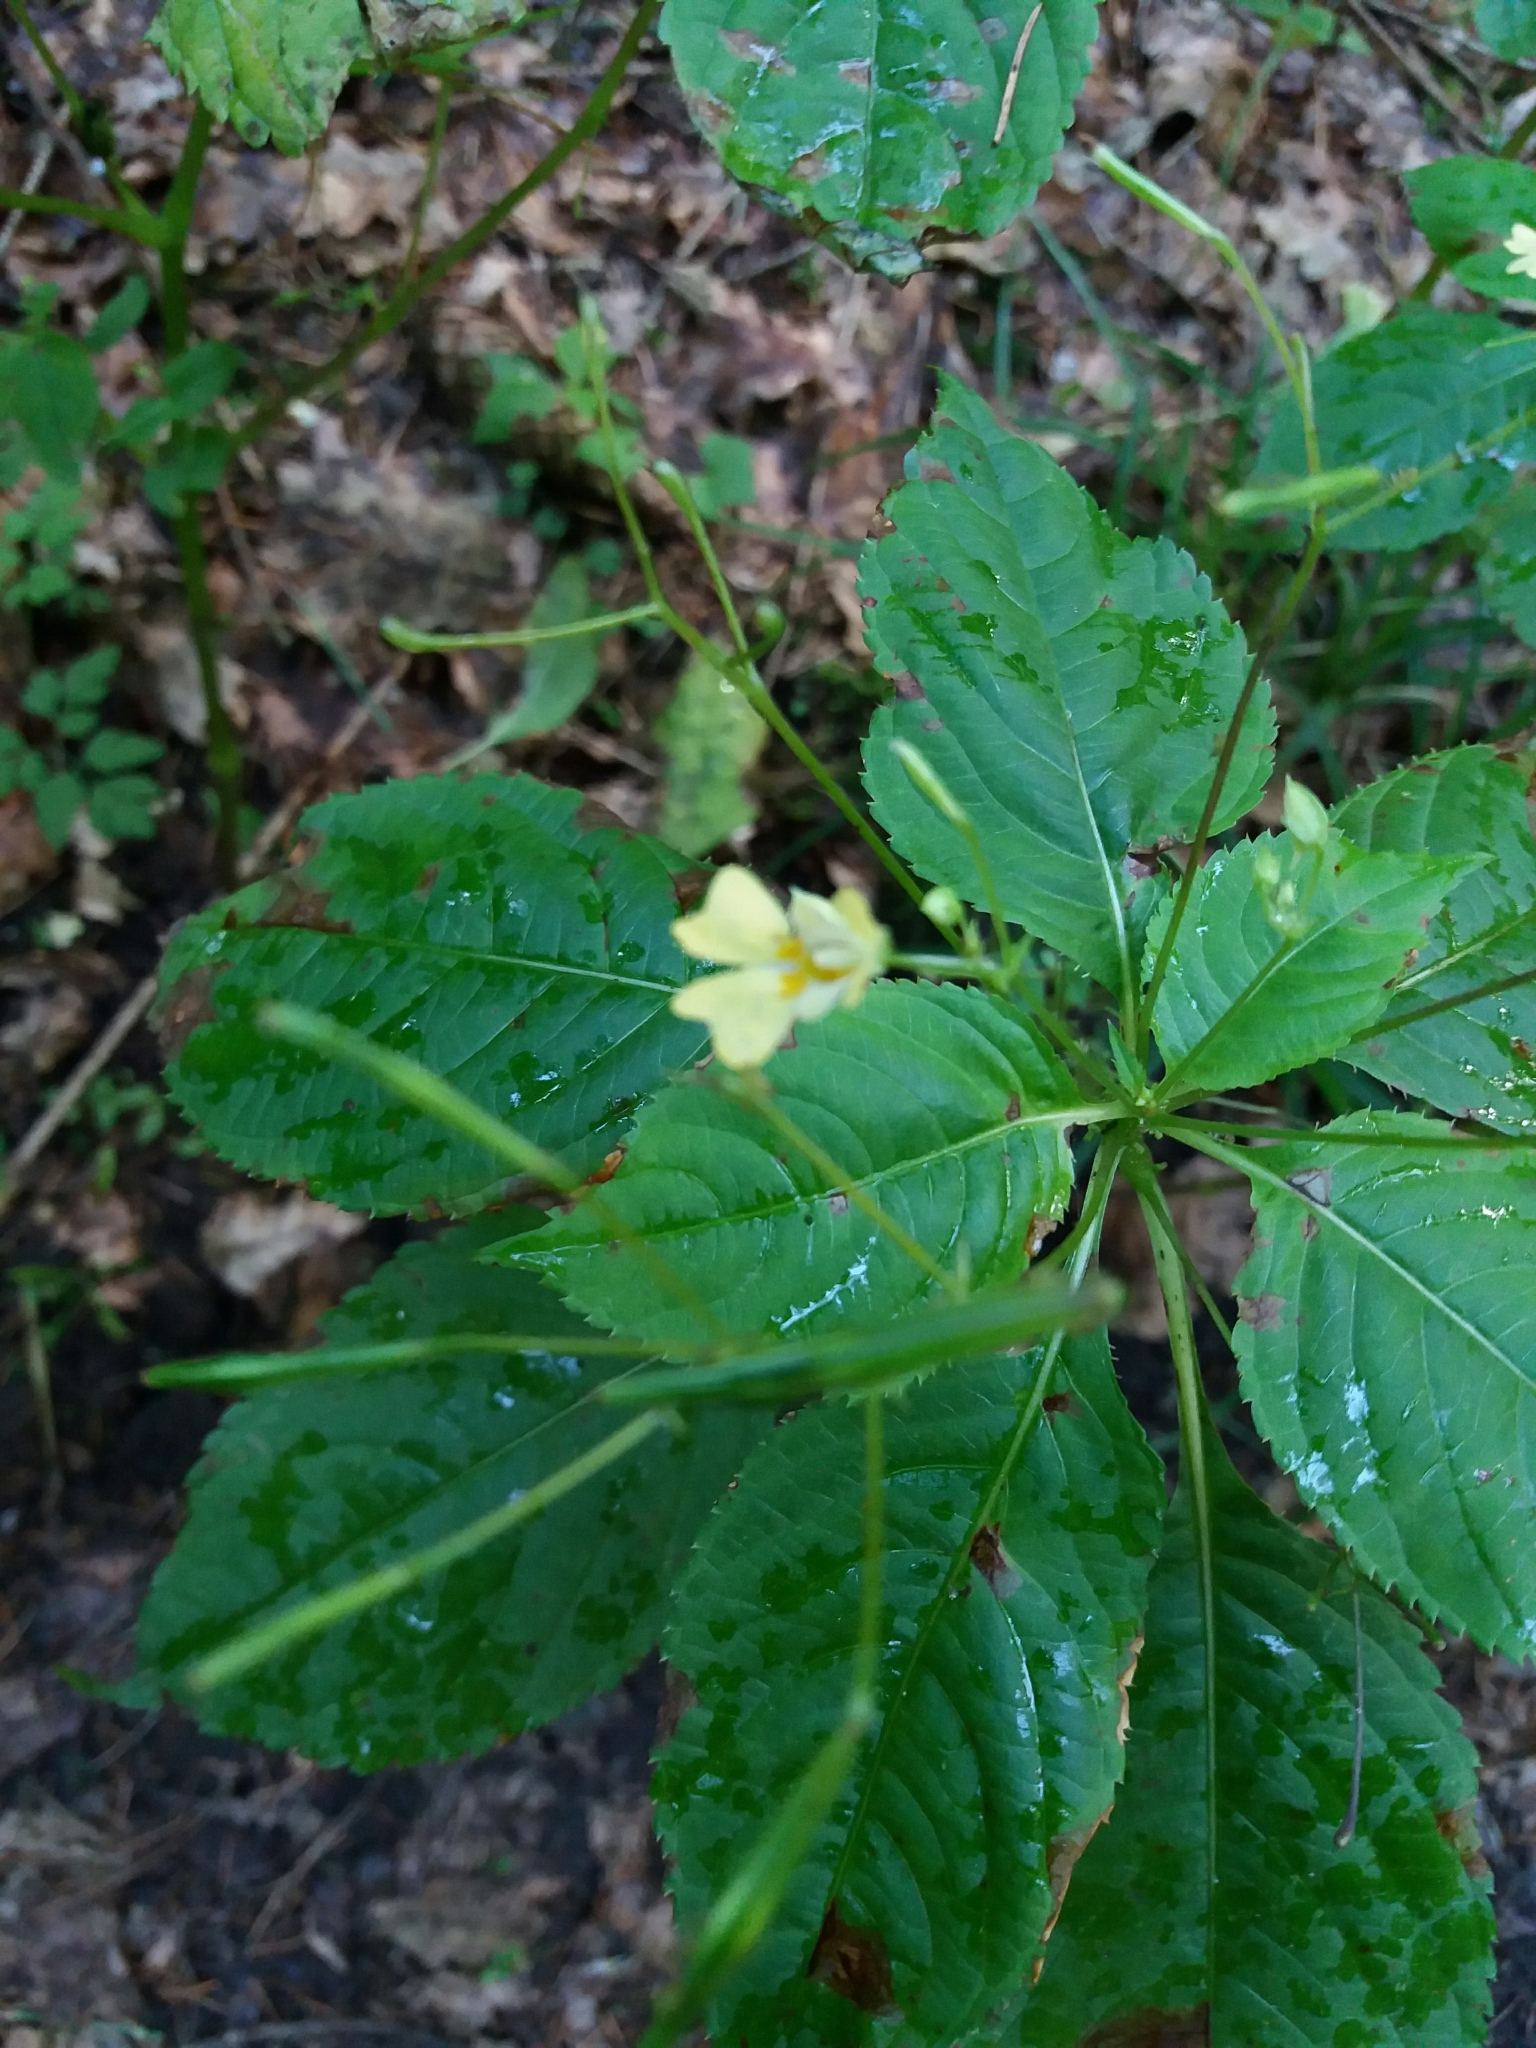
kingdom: Plantae
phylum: Tracheophyta
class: Magnoliopsida
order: Ericales
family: Balsaminaceae
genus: Impatiens
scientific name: Impatiens parviflora
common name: Small balsam
